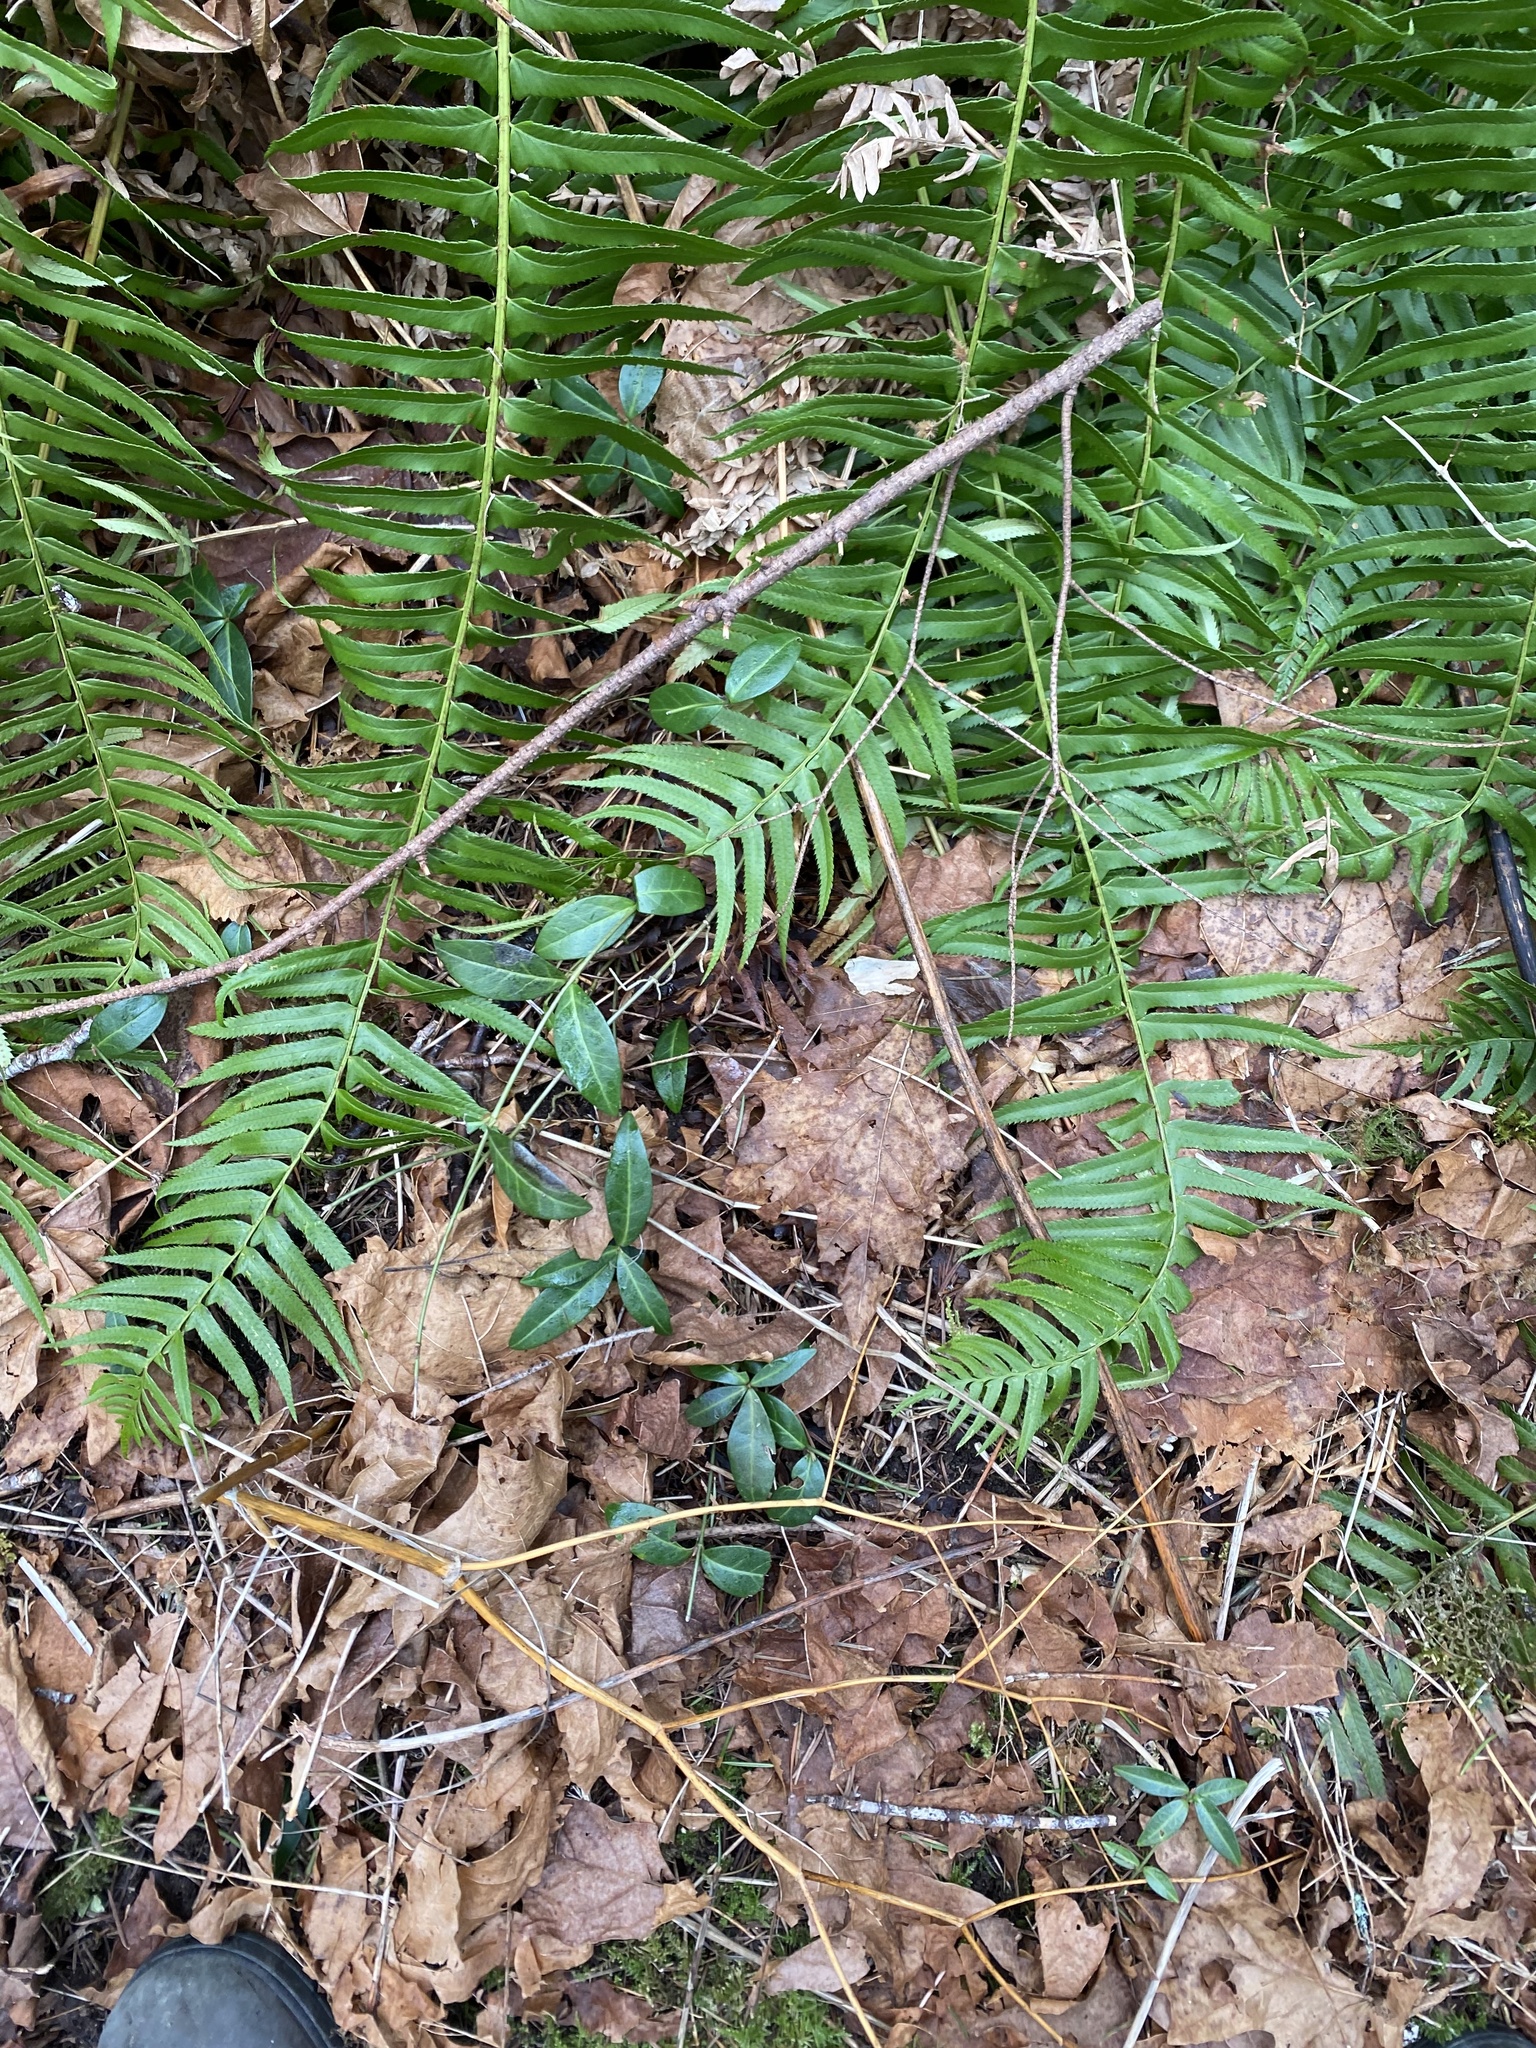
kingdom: Plantae
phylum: Tracheophyta
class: Magnoliopsida
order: Gentianales
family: Apocynaceae
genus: Vinca
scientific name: Vinca minor
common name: Lesser periwinkle
